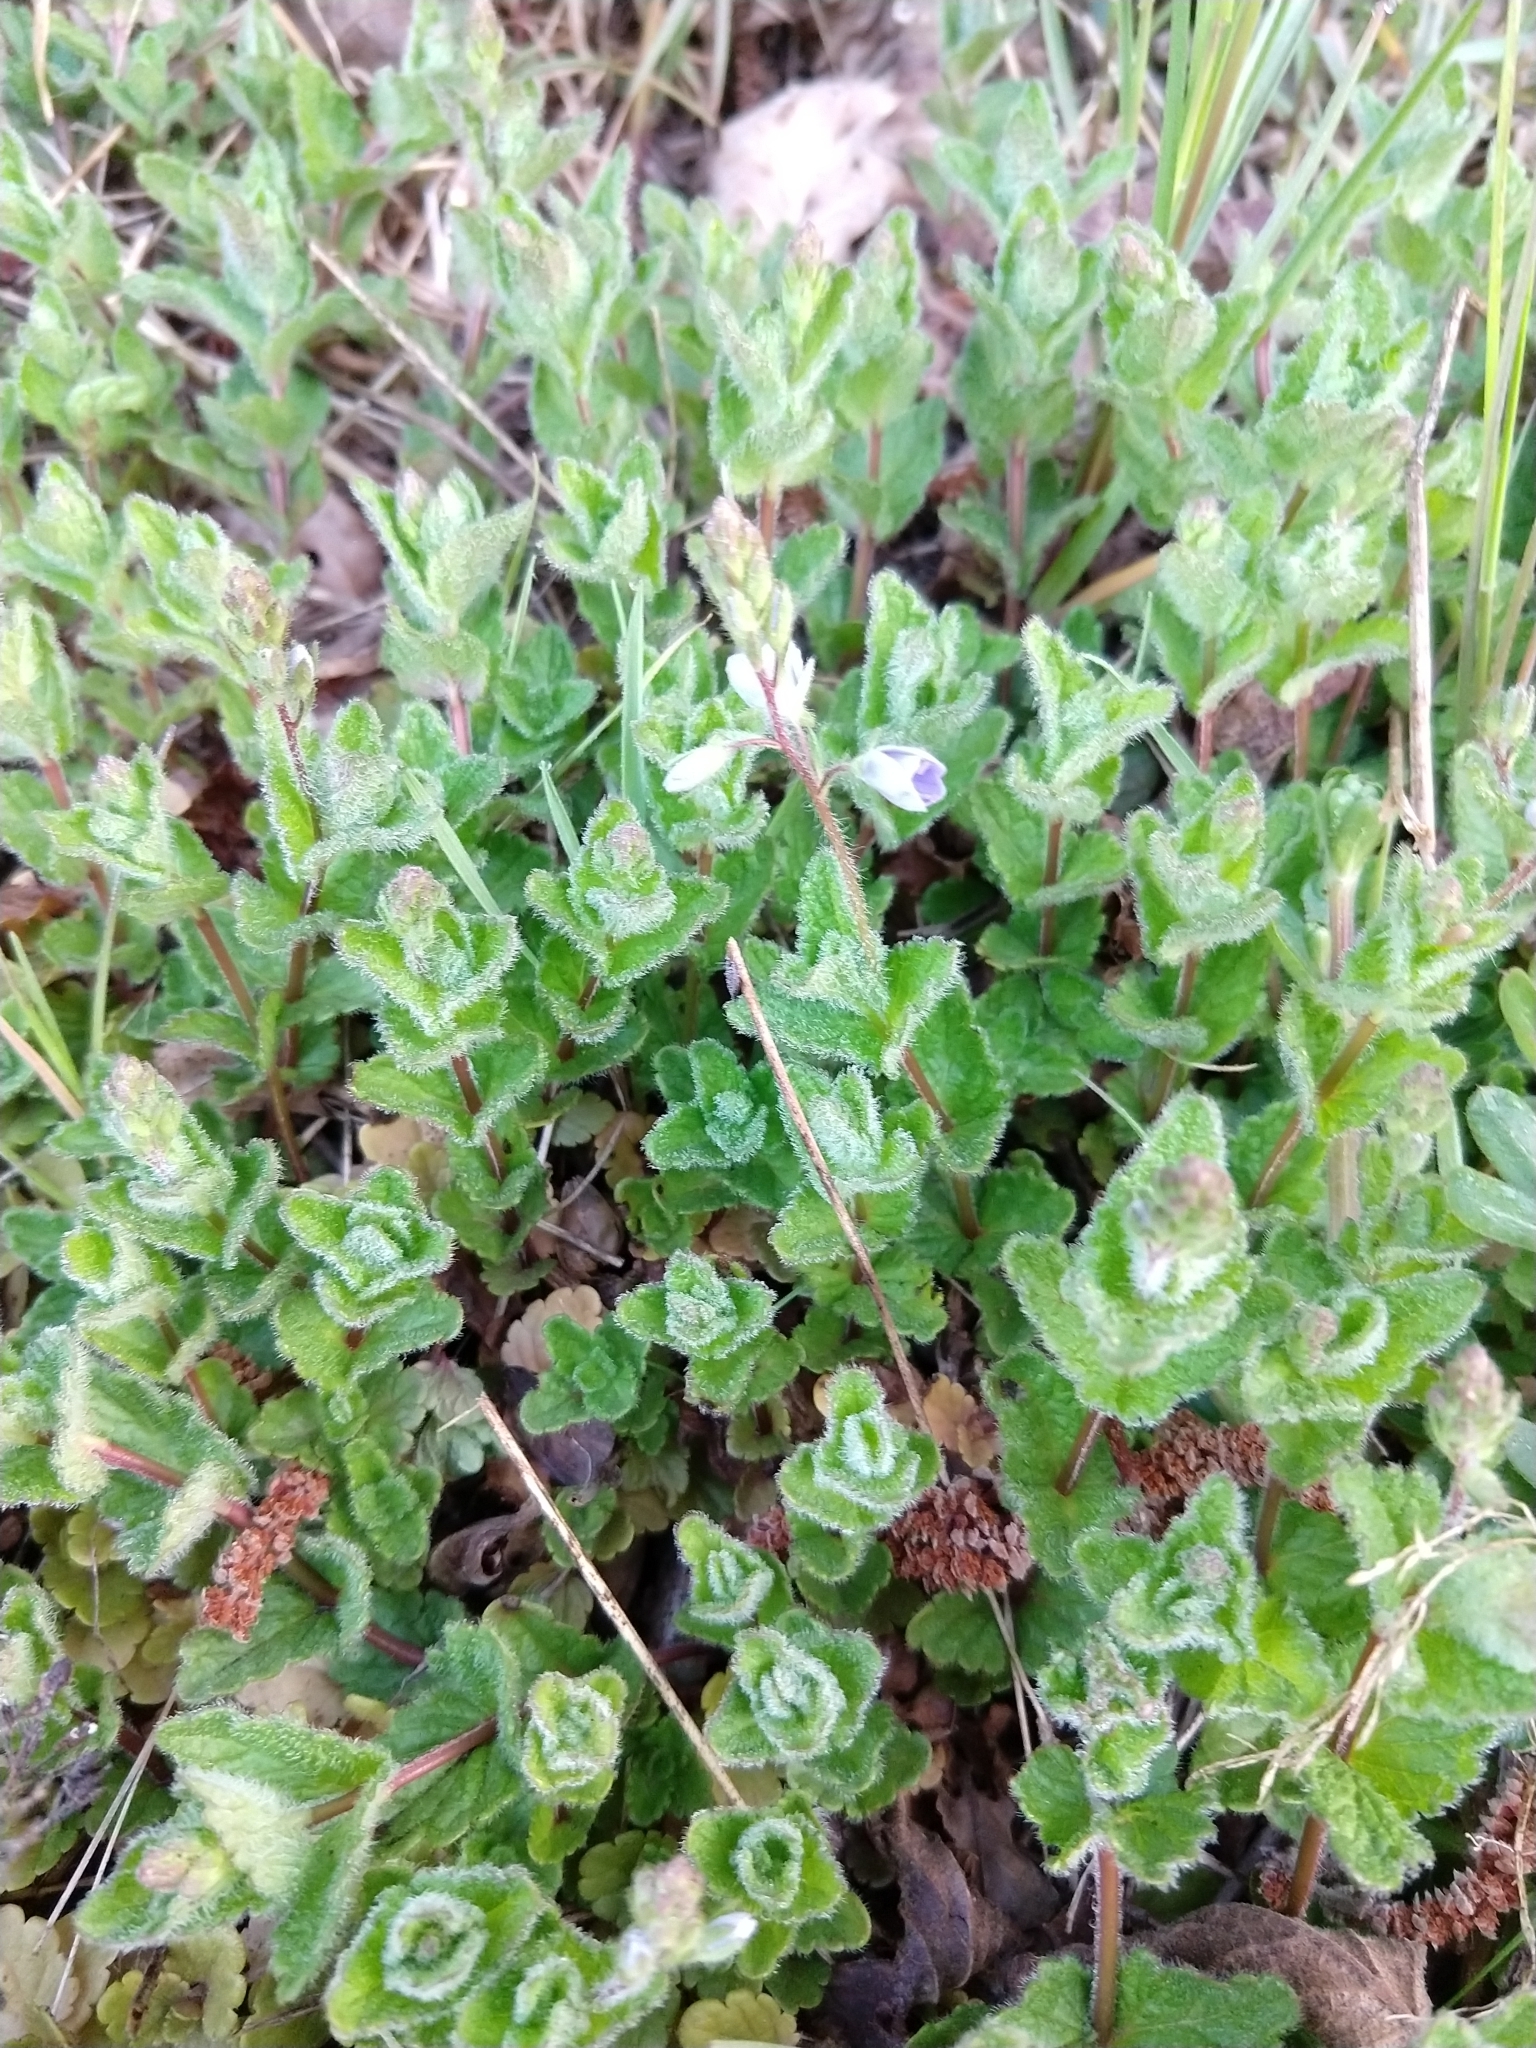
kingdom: Plantae
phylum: Tracheophyta
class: Magnoliopsida
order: Lamiales
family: Plantaginaceae
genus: Veronica
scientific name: Veronica chamaedrys
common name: Germander speedwell
